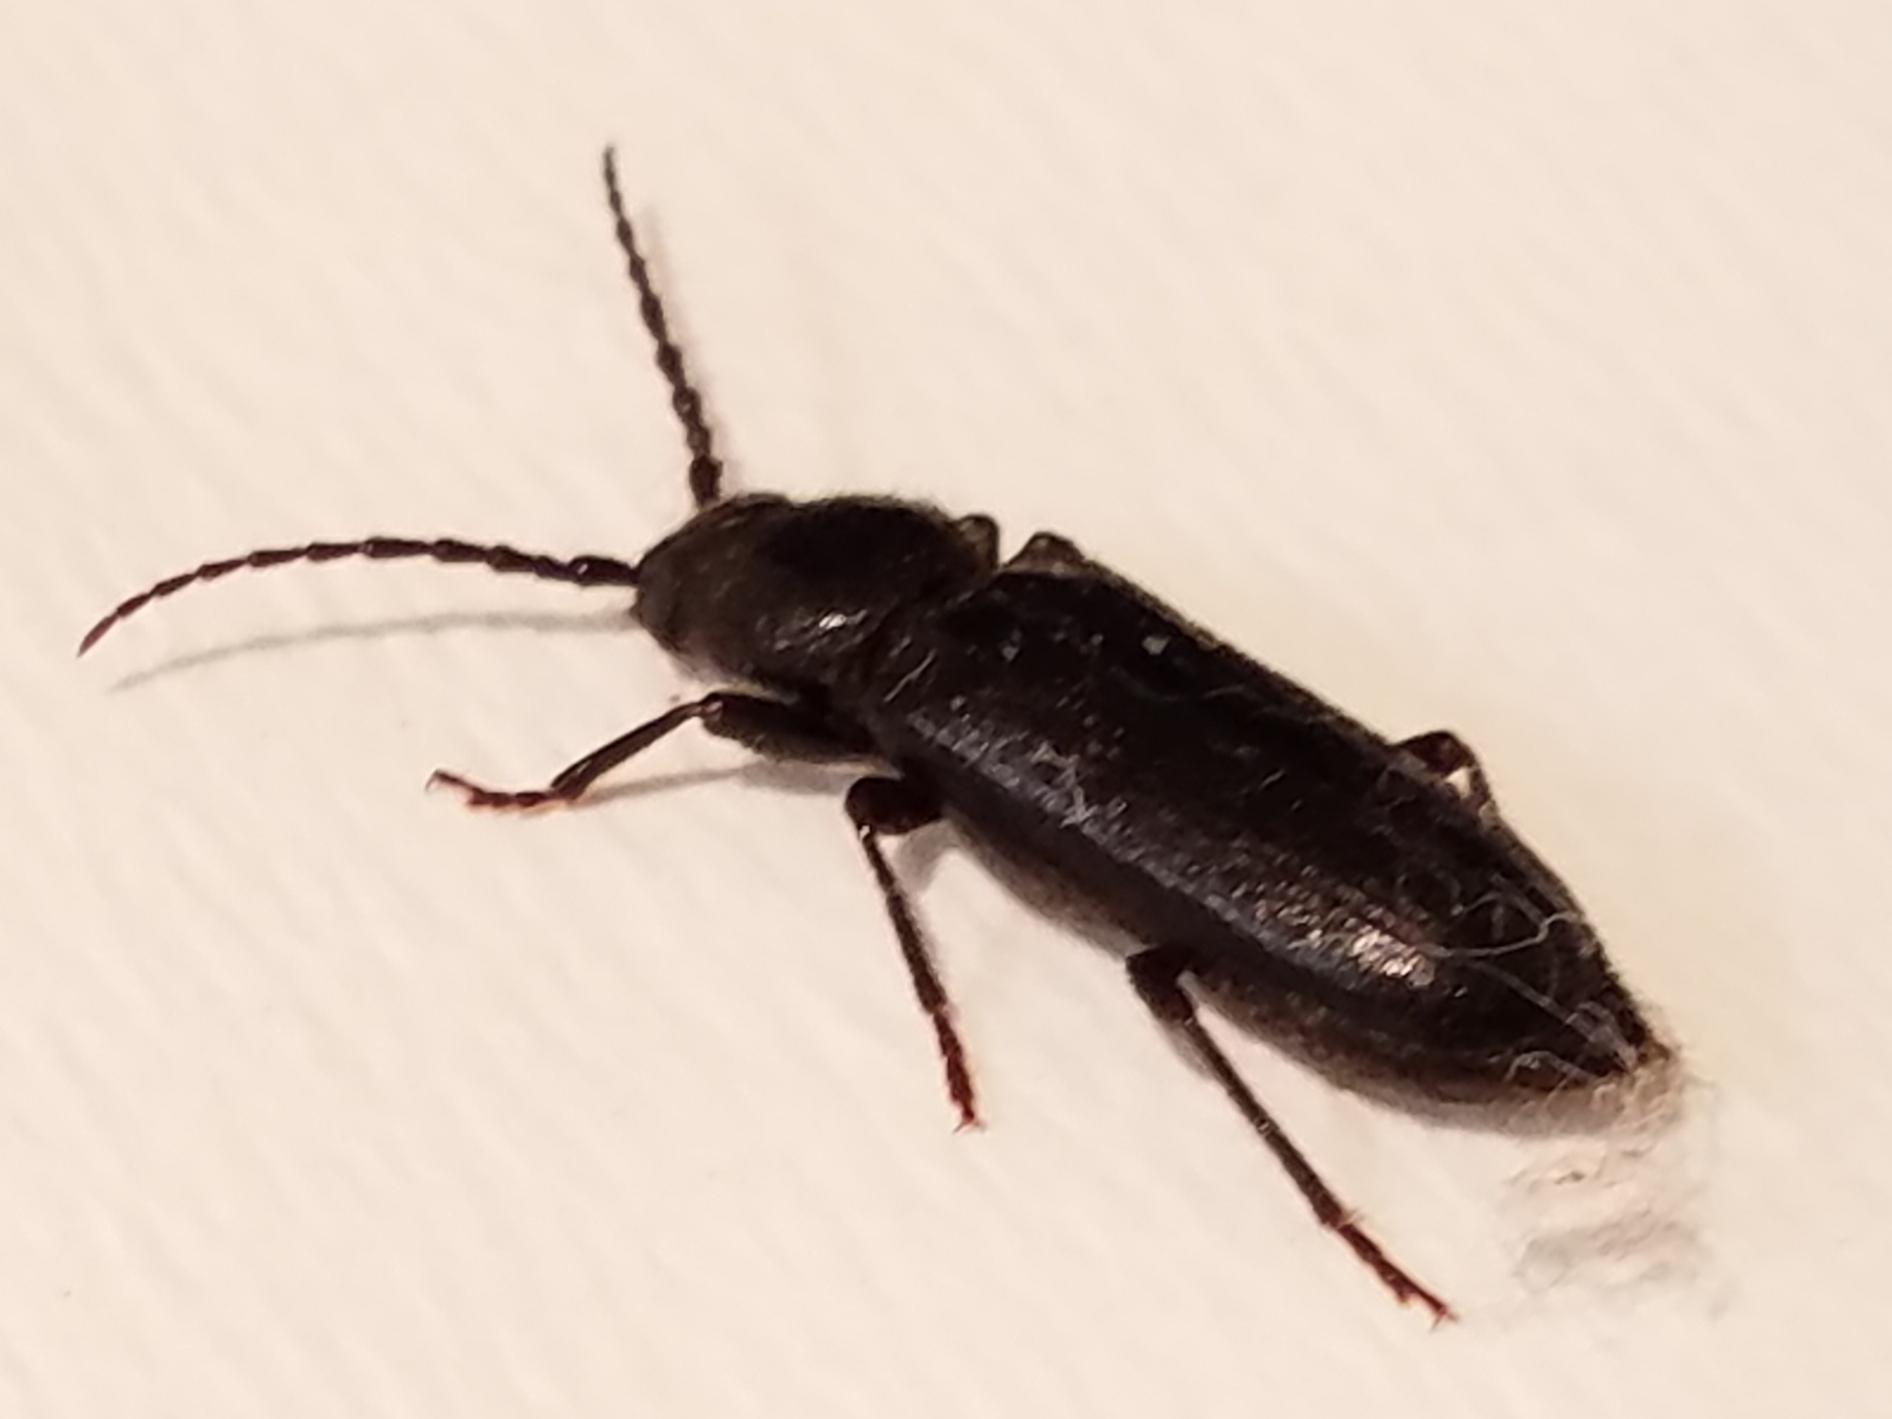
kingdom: Animalia
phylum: Arthropoda
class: Insecta
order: Coleoptera
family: Cerambycidae
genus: Asemum
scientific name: Asemum nitidum
